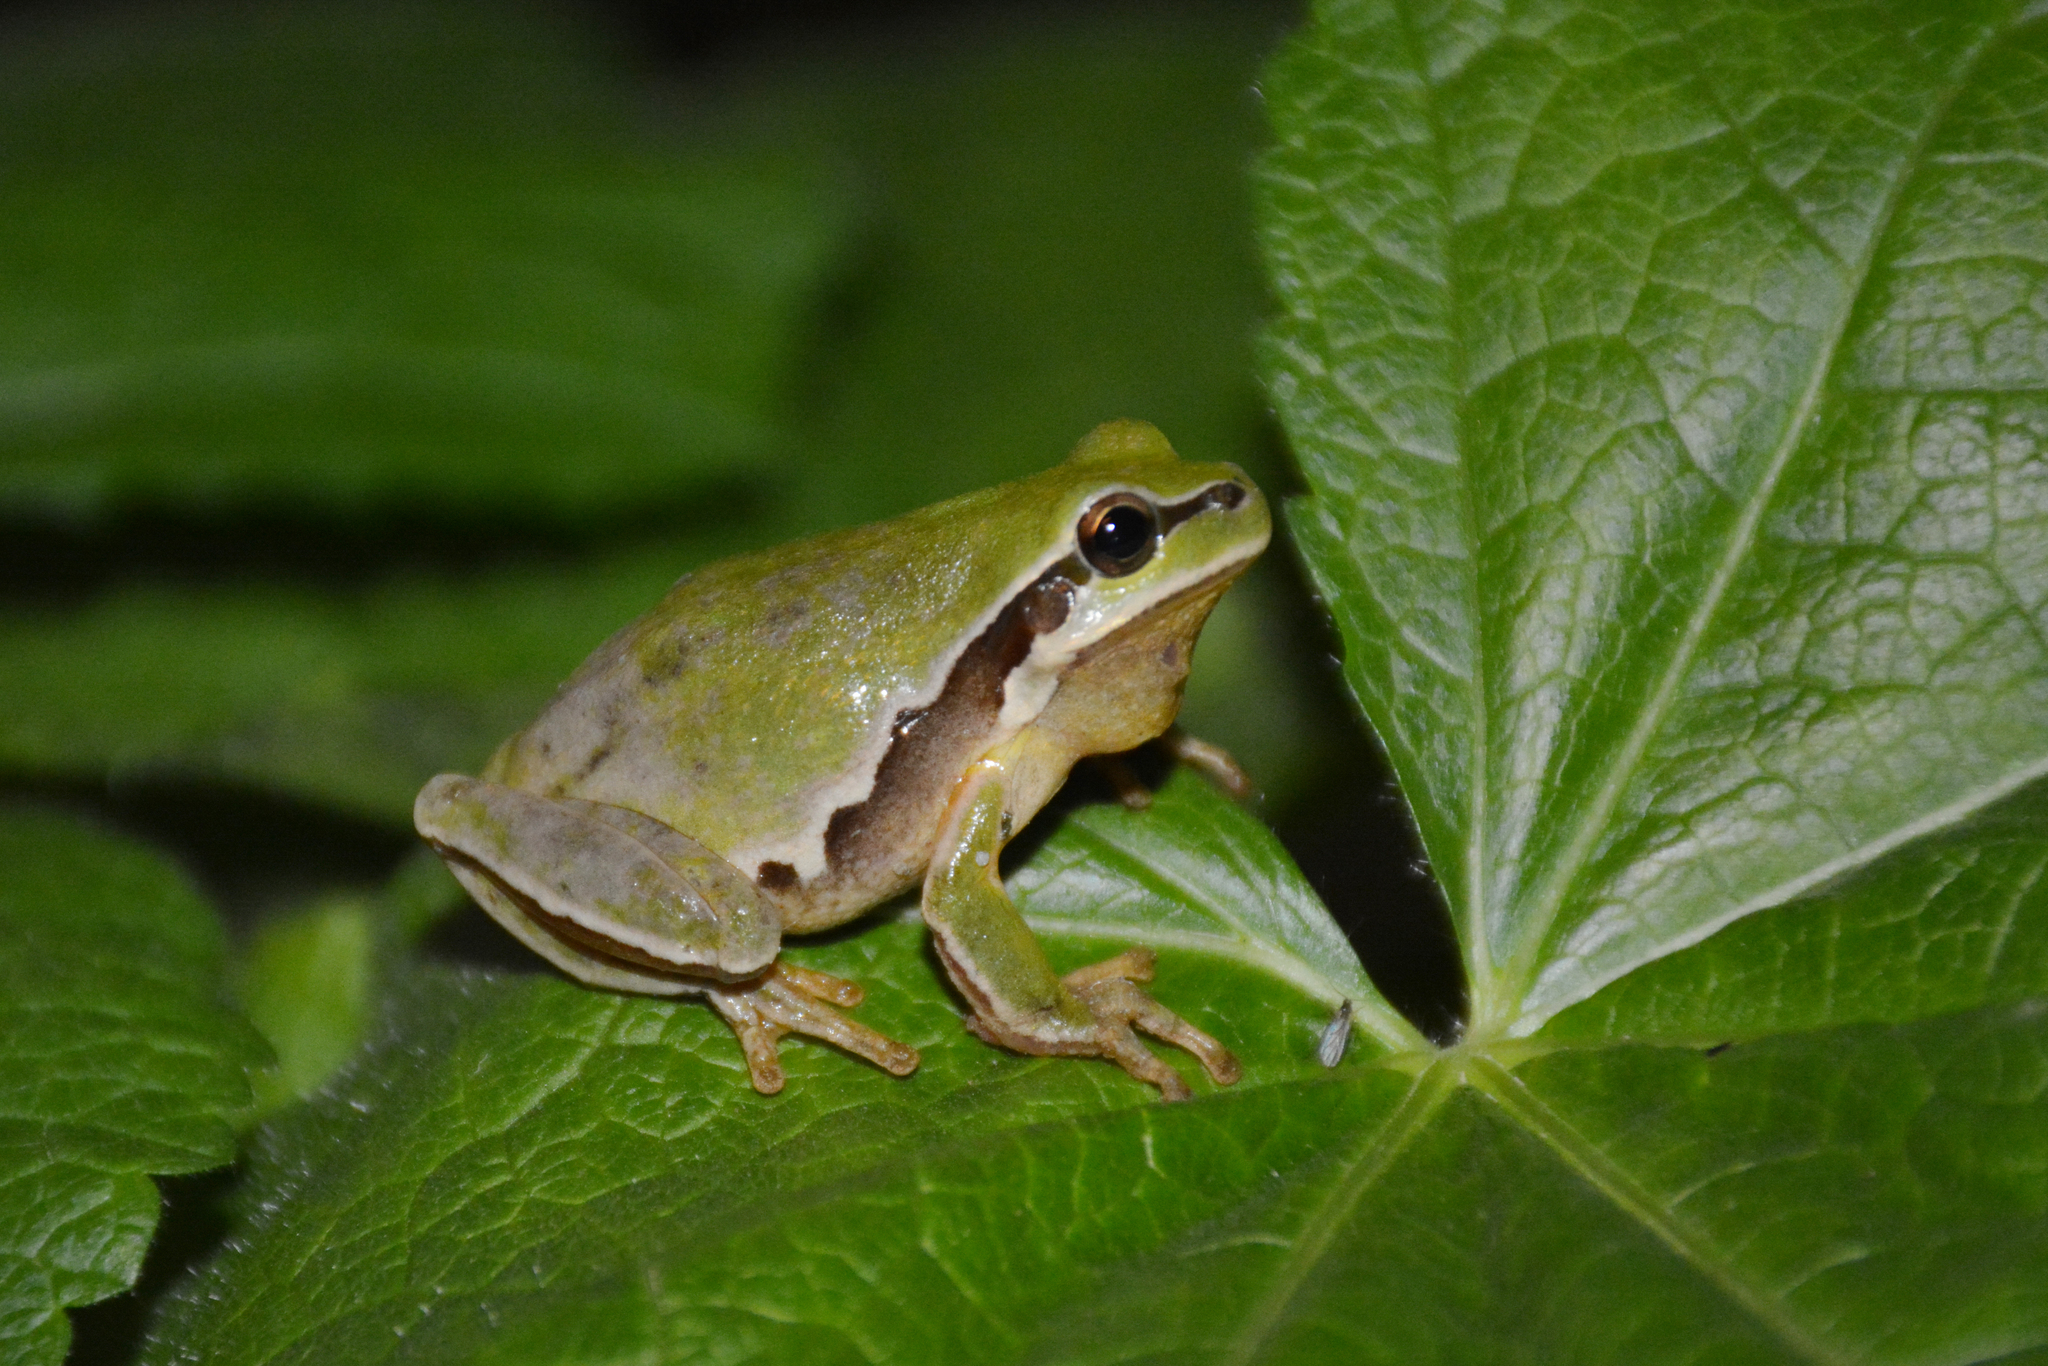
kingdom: Animalia
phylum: Chordata
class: Amphibia
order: Anura
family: Hylidae
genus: Hyla
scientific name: Hyla savignyi
